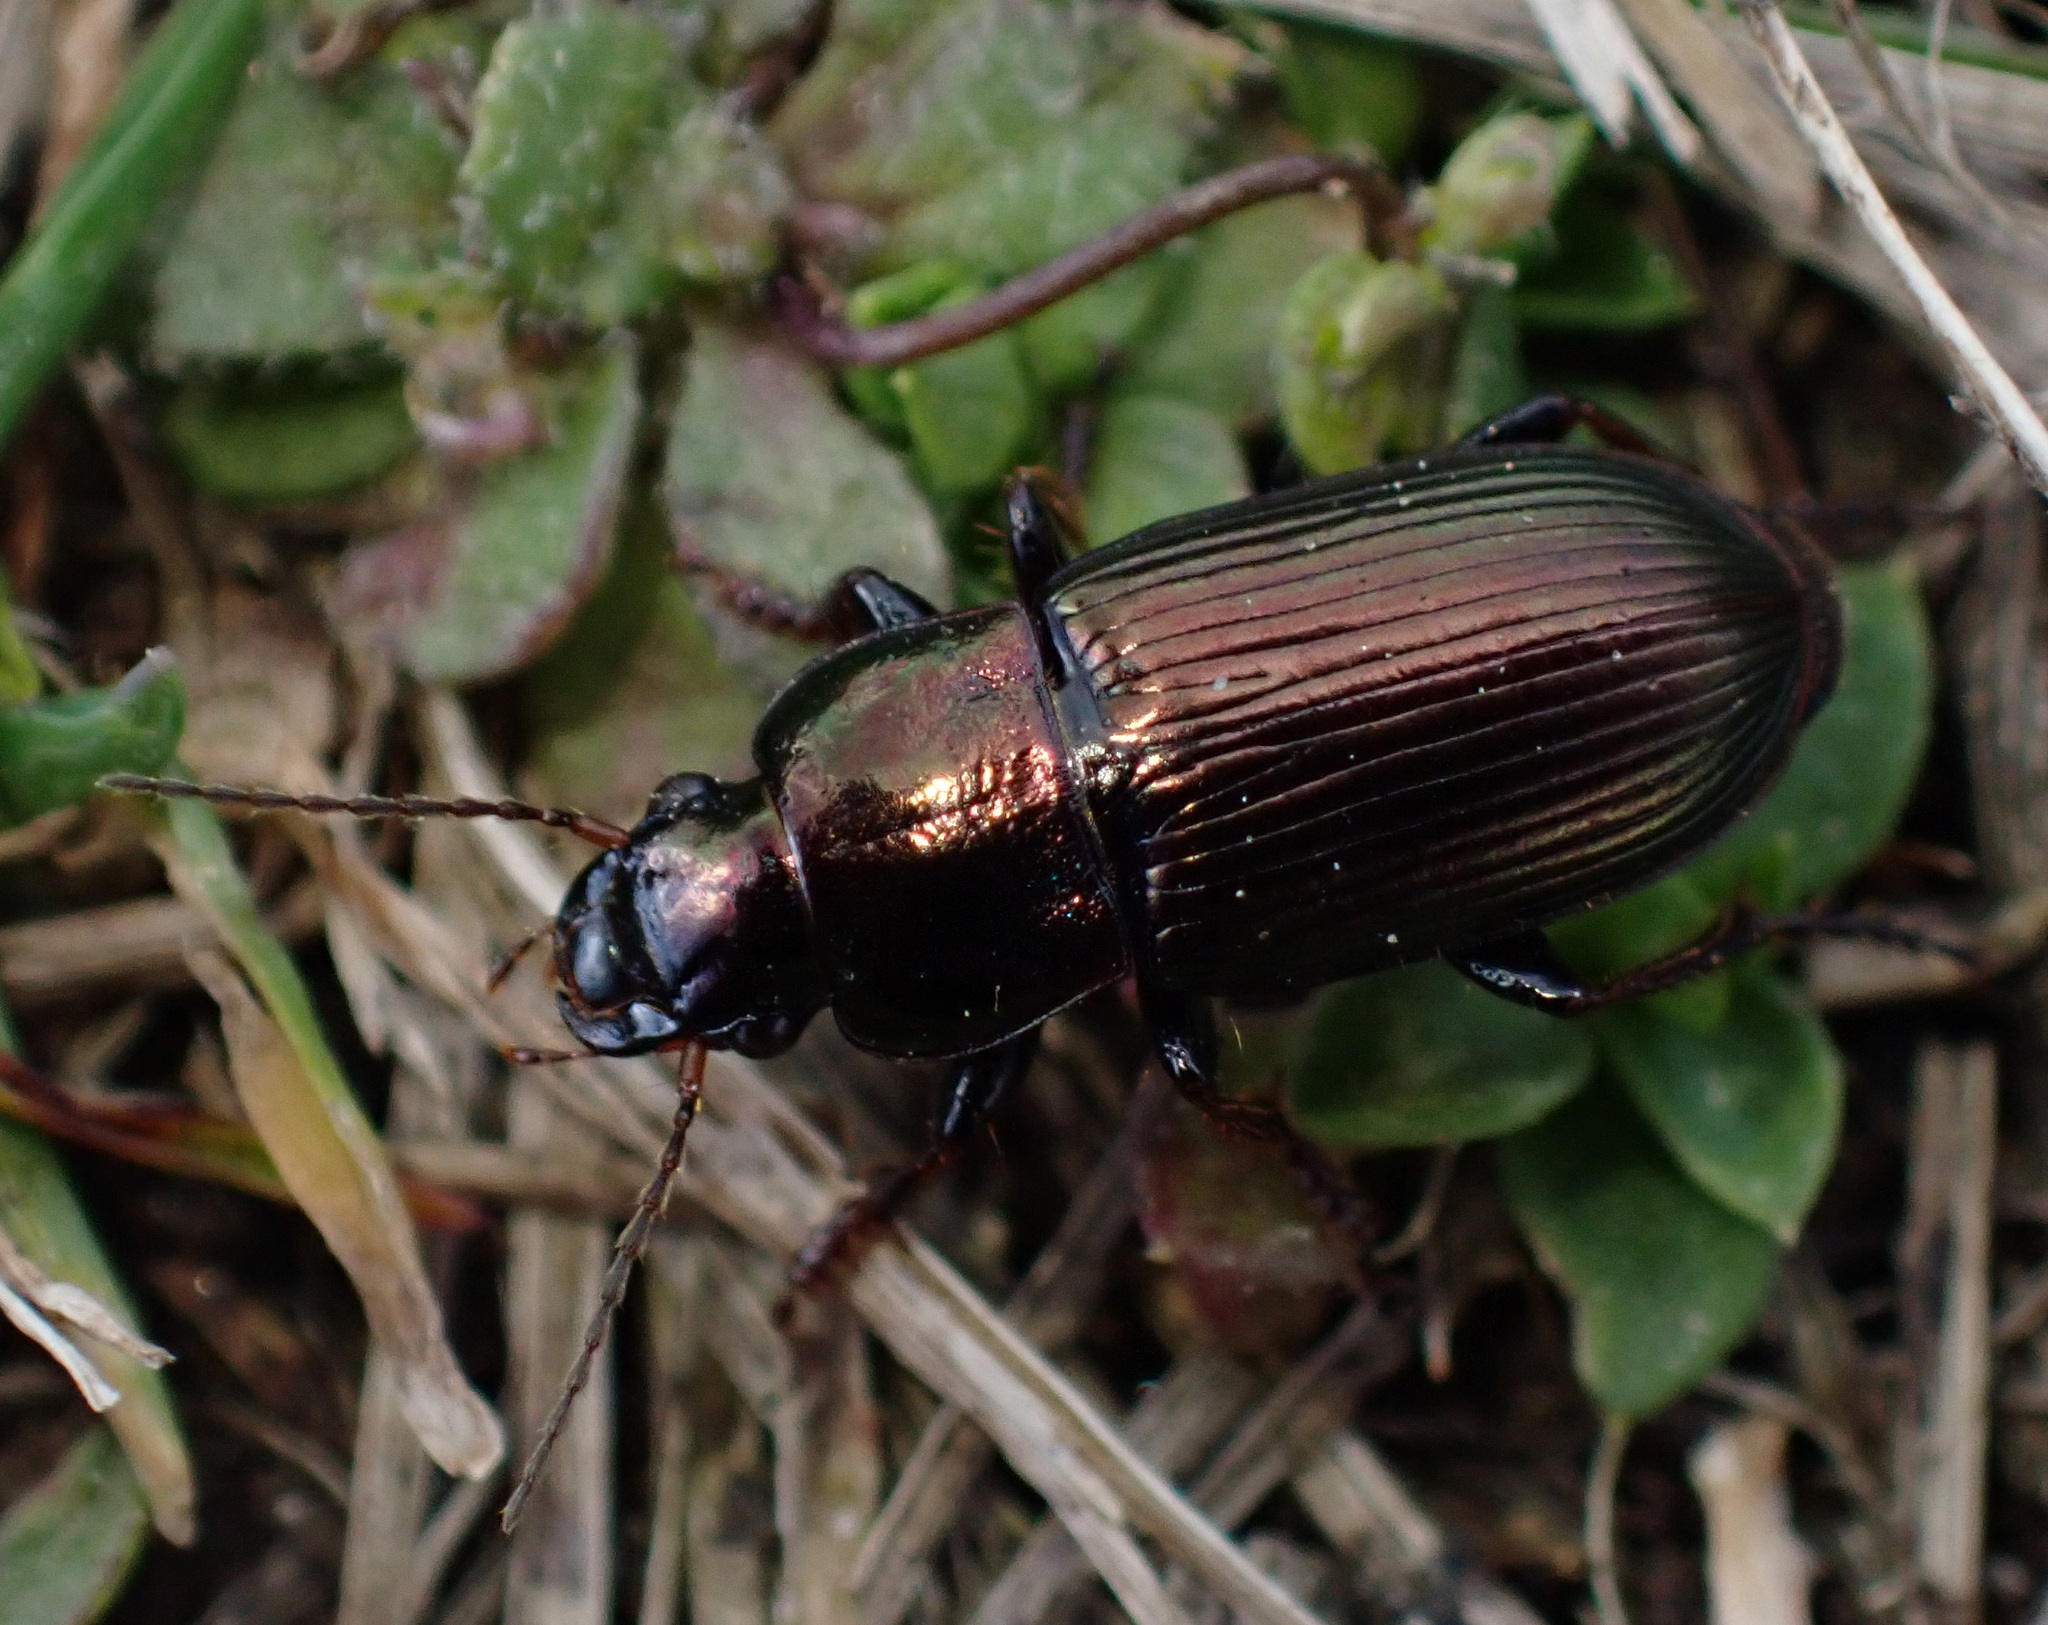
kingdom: Animalia
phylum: Arthropoda
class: Insecta
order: Coleoptera
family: Carabidae
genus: Harpalus
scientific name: Harpalus distinguendus
